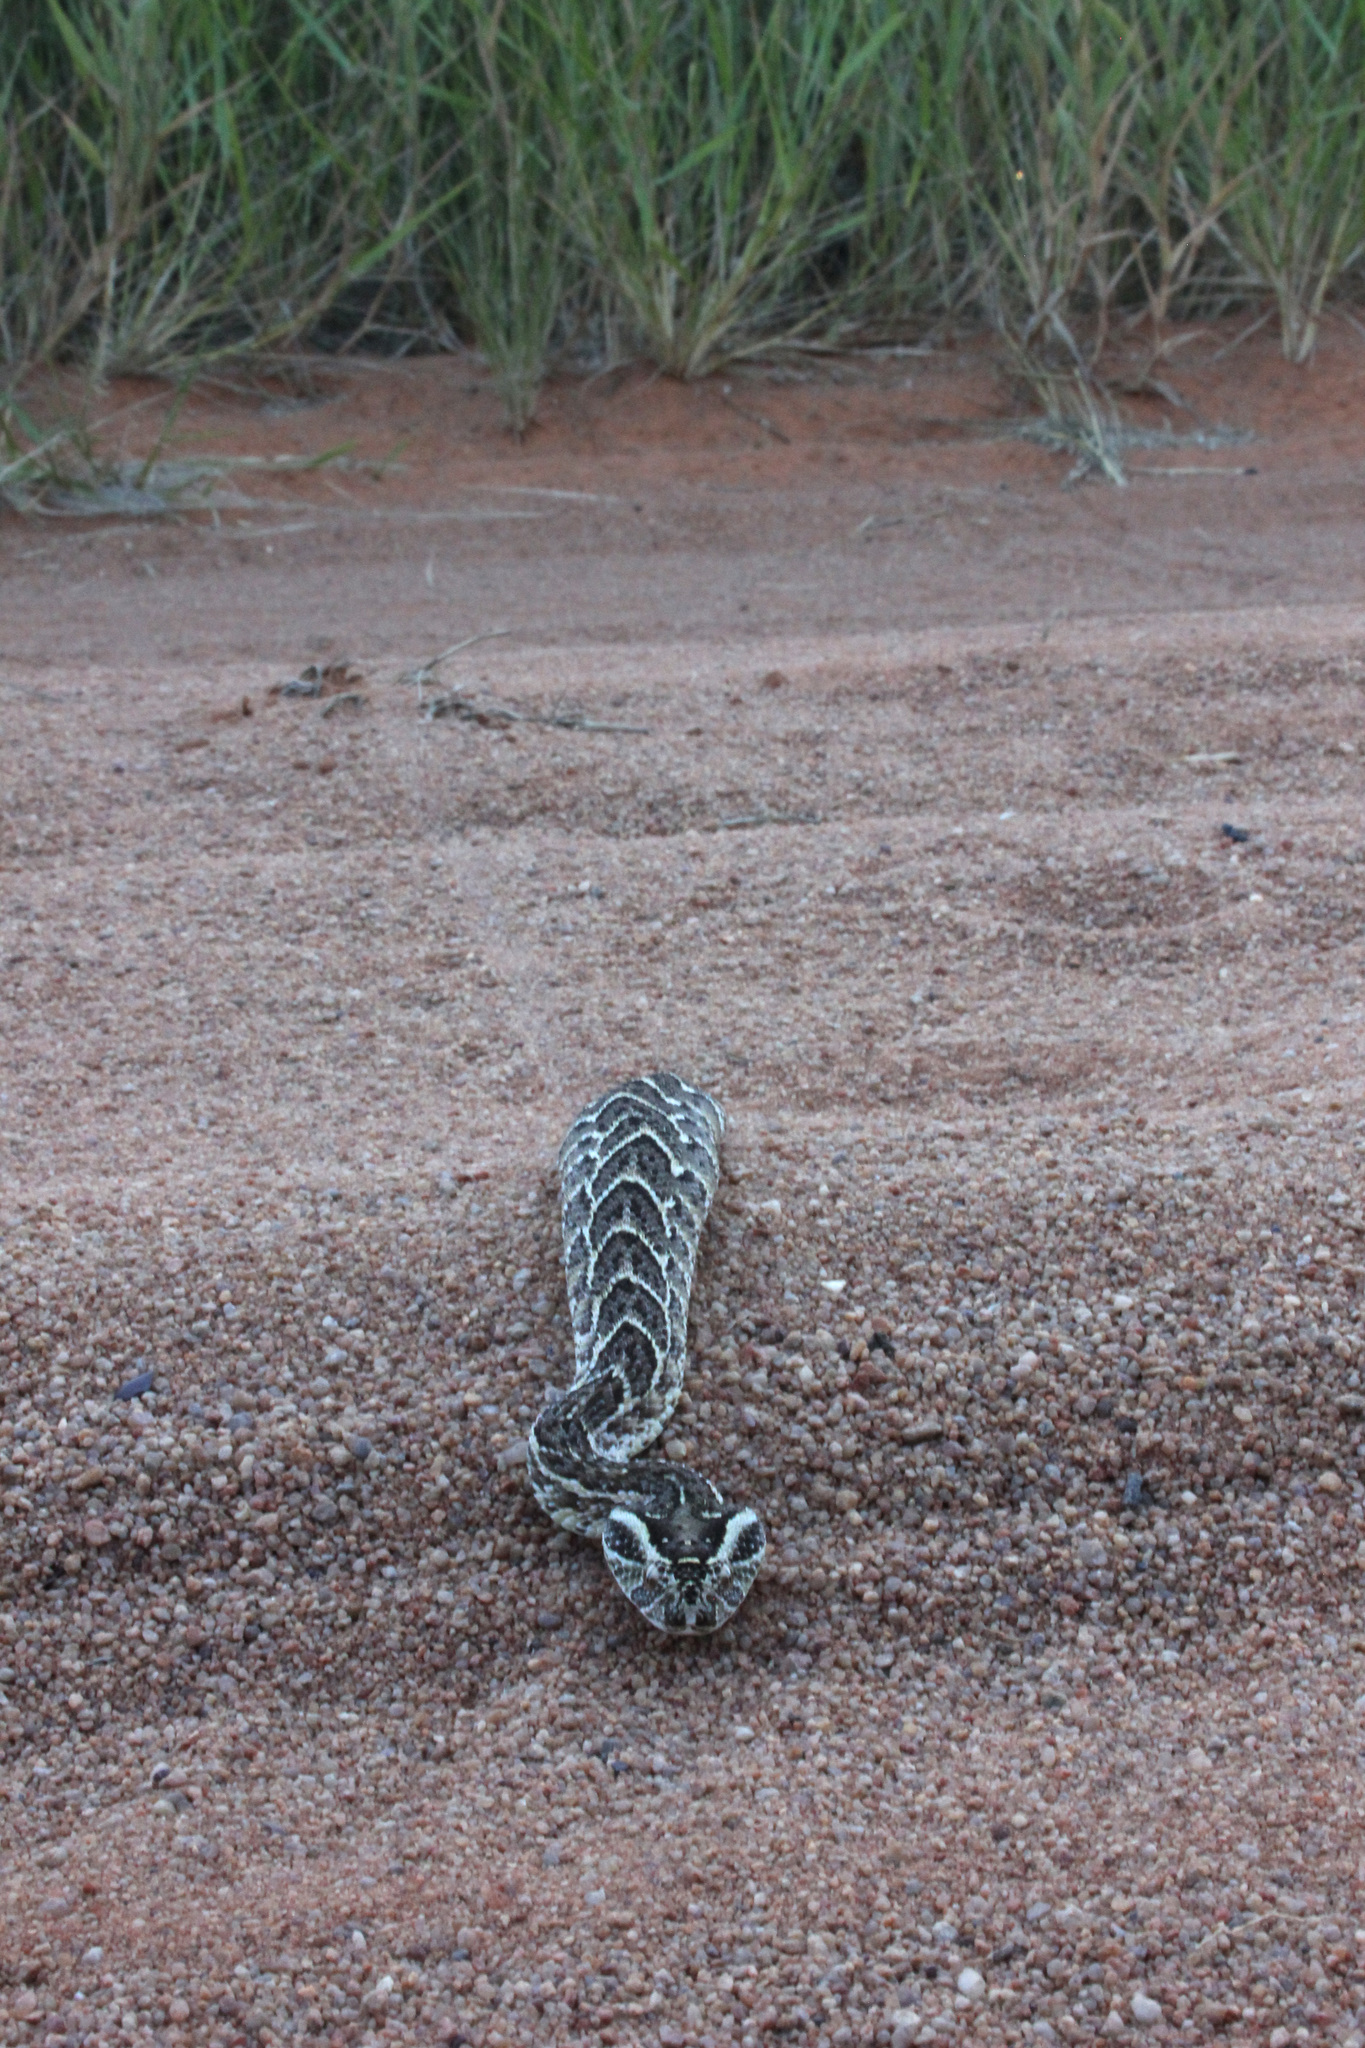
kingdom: Animalia
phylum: Chordata
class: Squamata
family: Viperidae
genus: Bitis
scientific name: Bitis arietans
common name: Puff adder
